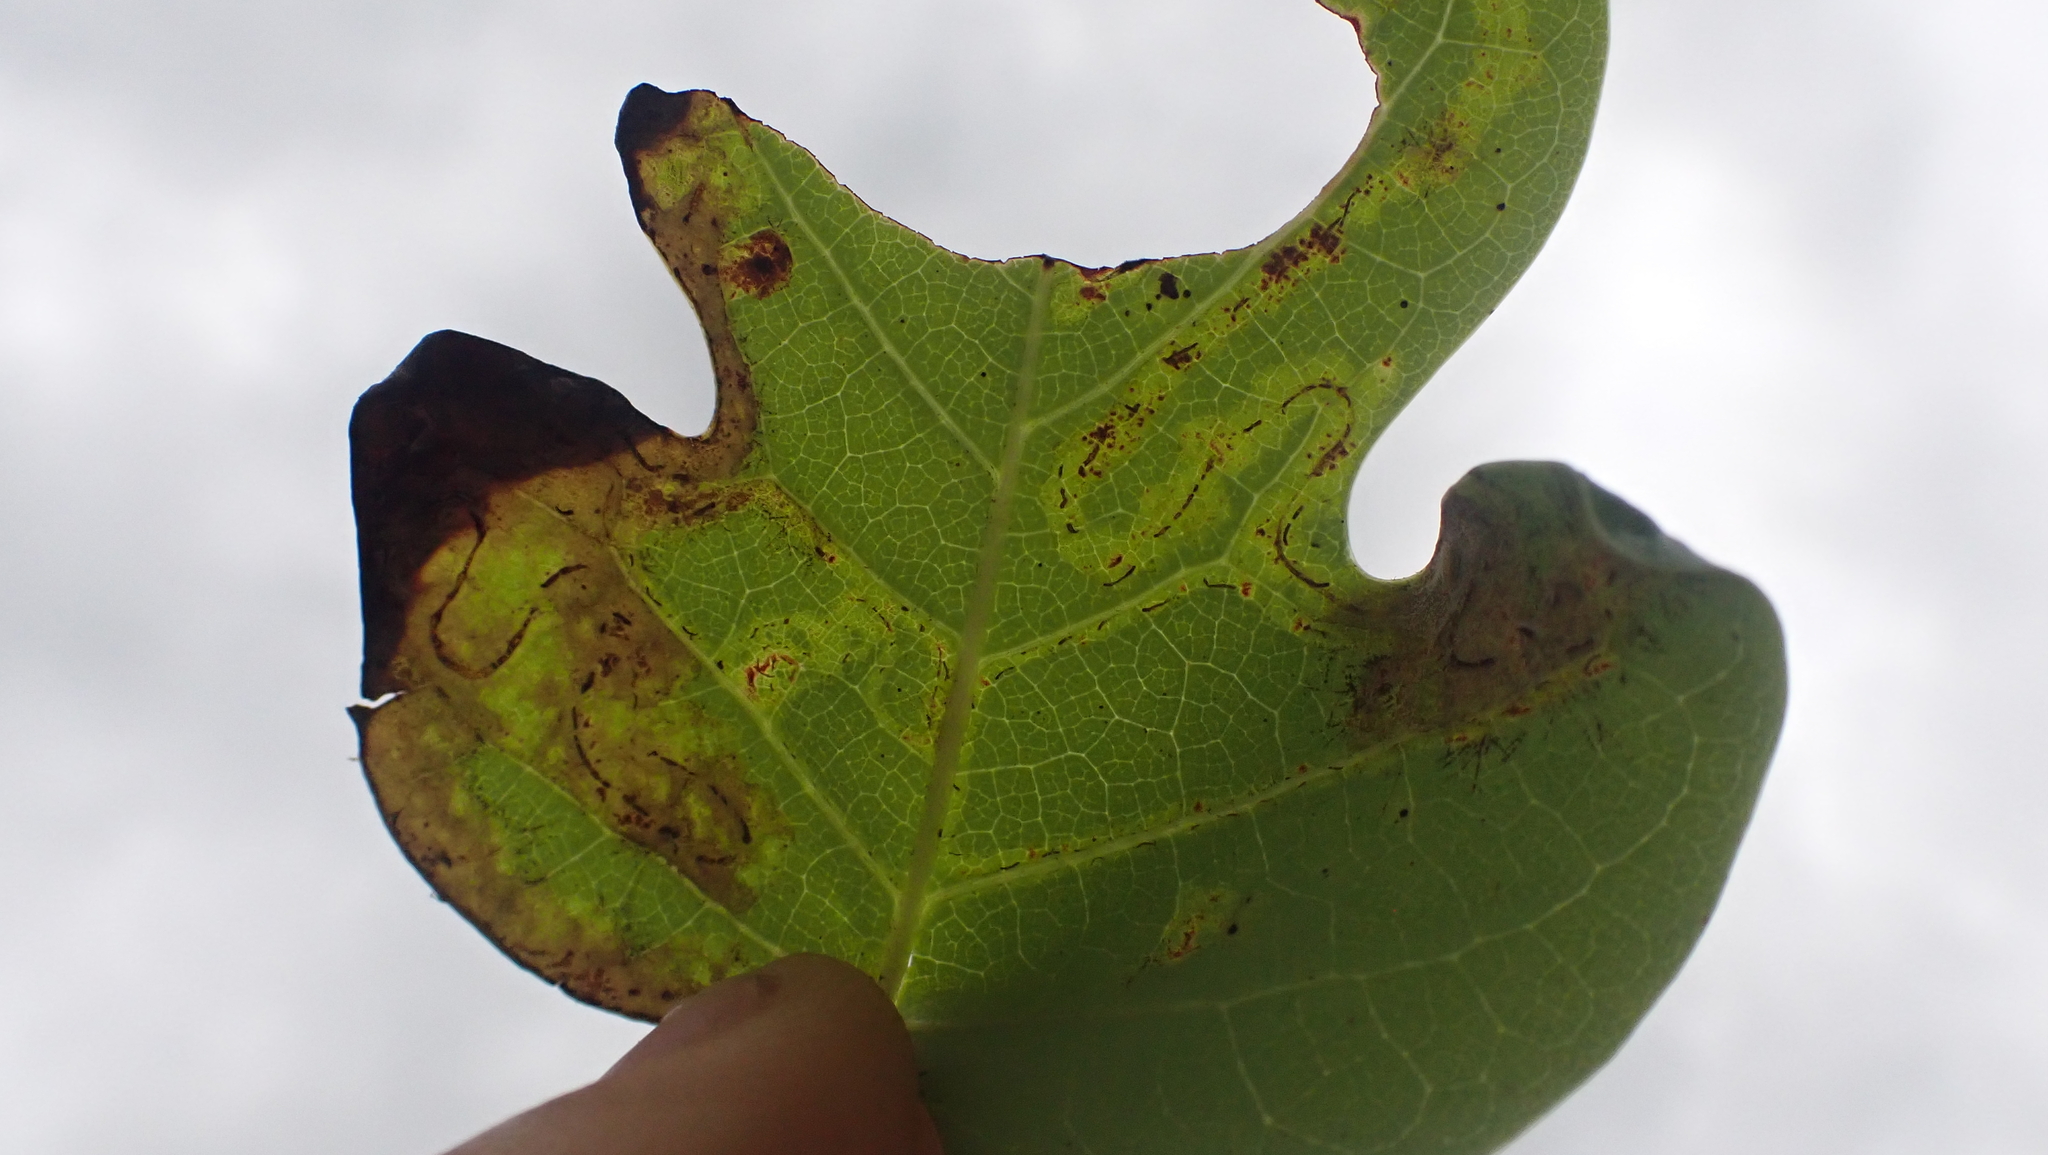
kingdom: Animalia
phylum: Arthropoda
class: Insecta
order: Lepidoptera
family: Gracillariidae
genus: Phyllocnistis
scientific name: Phyllocnistis liriodendronella
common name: Tulip tree leaf miner
